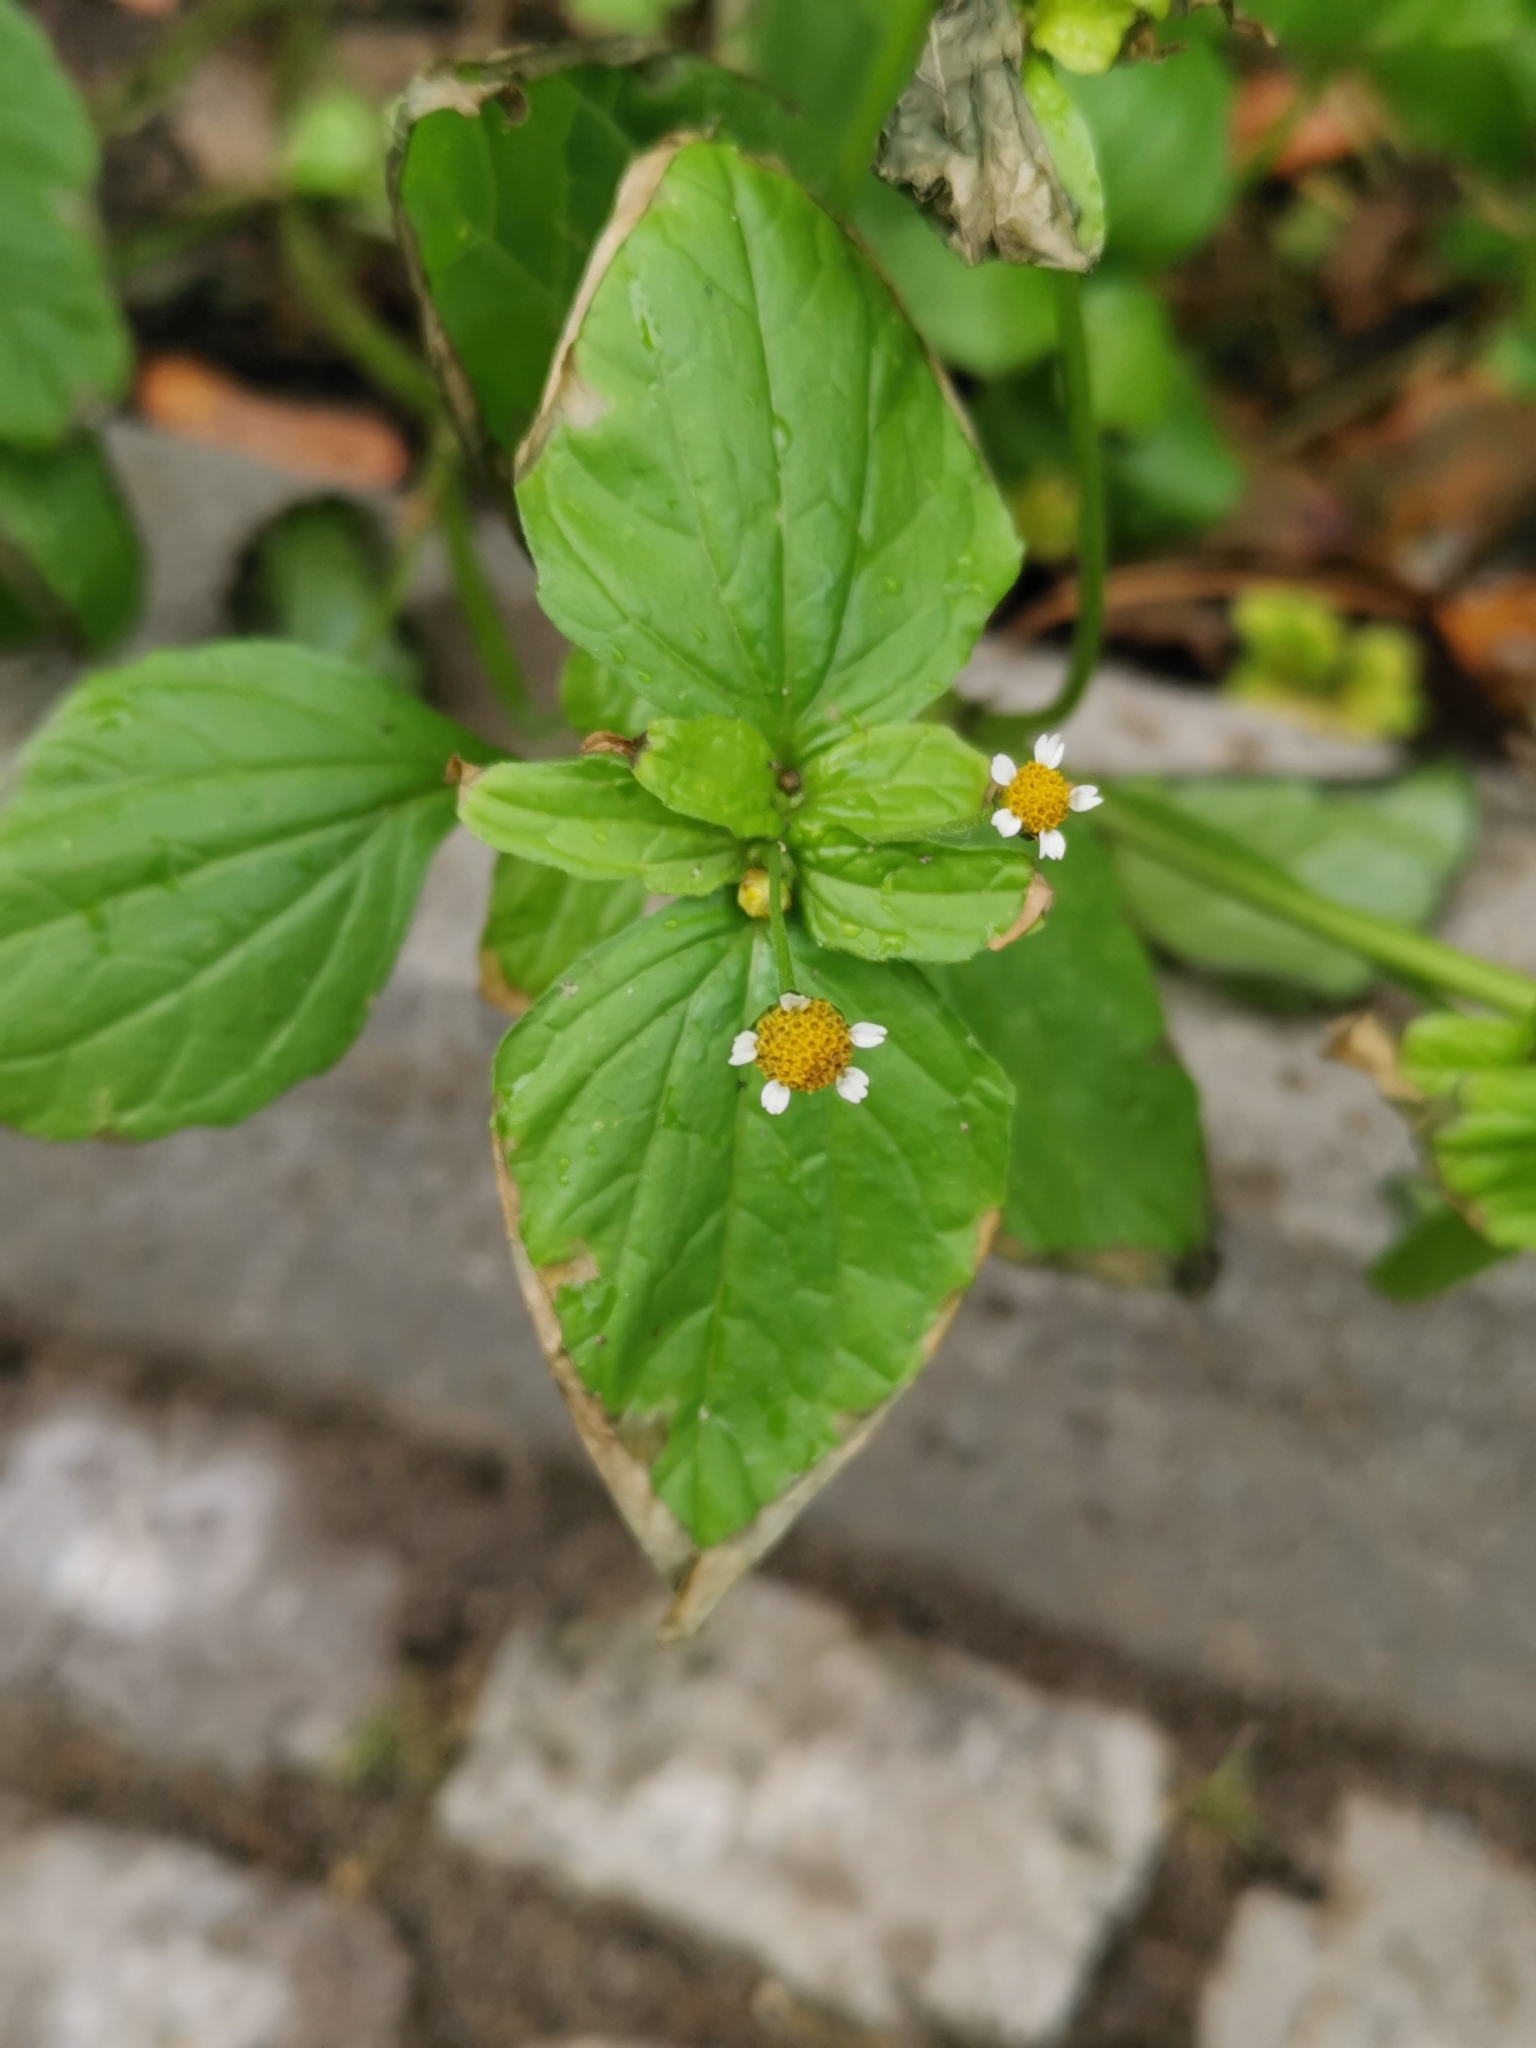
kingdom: Plantae
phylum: Tracheophyta
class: Magnoliopsida
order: Asterales
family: Asteraceae
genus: Galinsoga
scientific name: Galinsoga parviflora
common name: Gallant soldier
